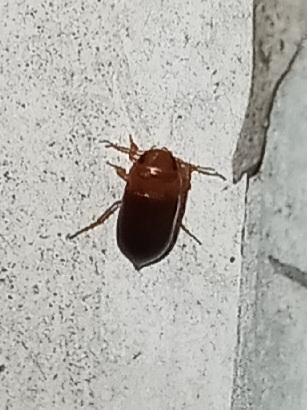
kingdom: Animalia
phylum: Arthropoda
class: Insecta
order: Coleoptera
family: Dytiscidae
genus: Celina
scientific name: Celina
